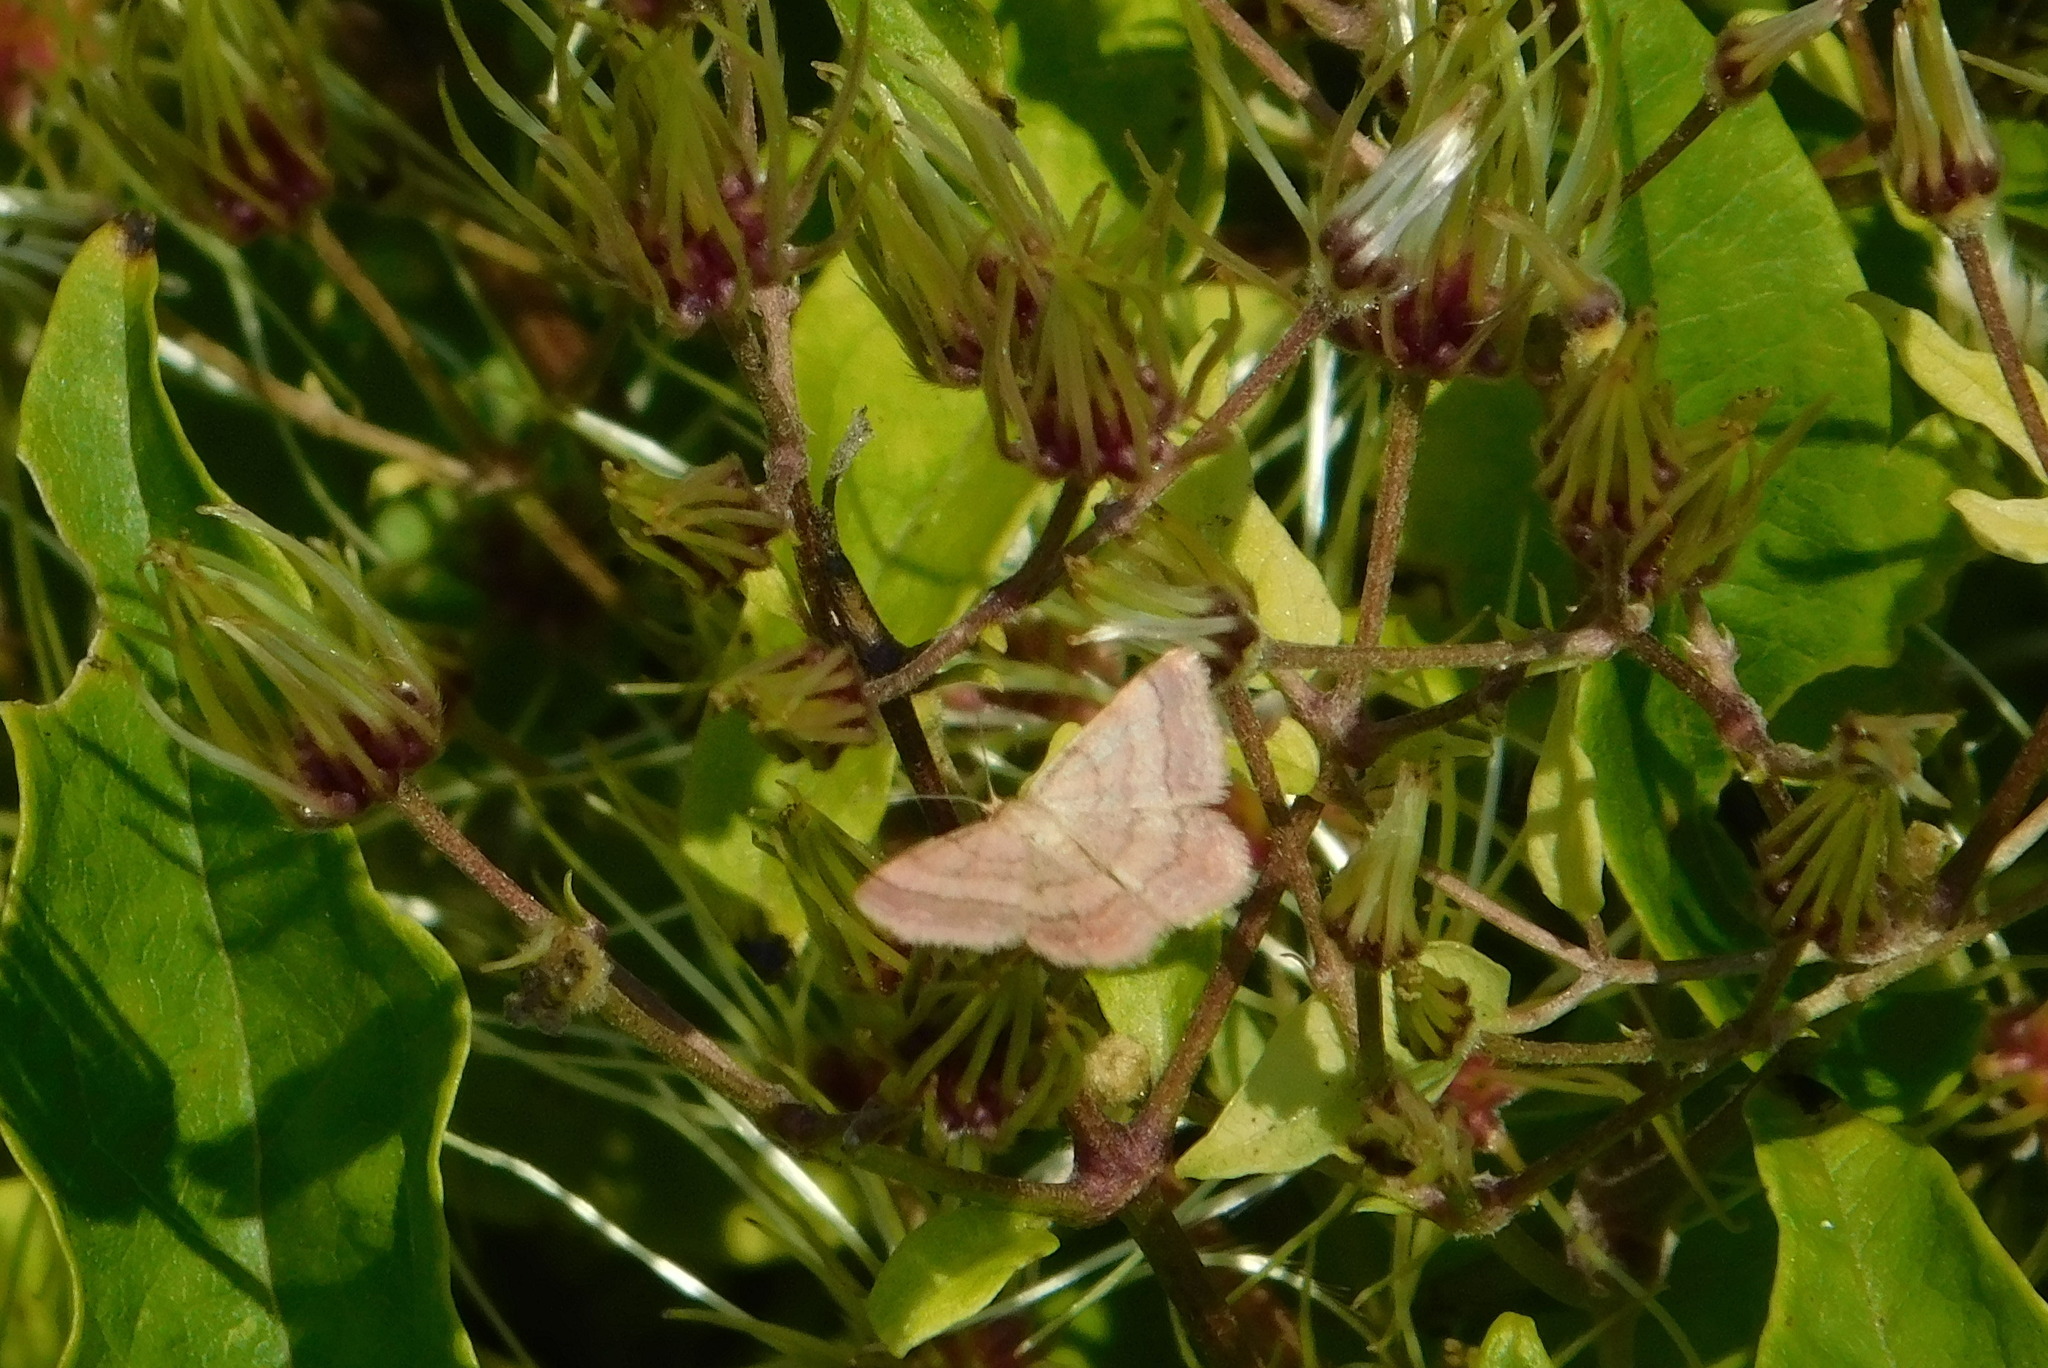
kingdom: Animalia
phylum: Arthropoda
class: Insecta
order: Lepidoptera
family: Geometridae
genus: Scopula
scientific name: Scopula rubiginata
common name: Tawny wave
